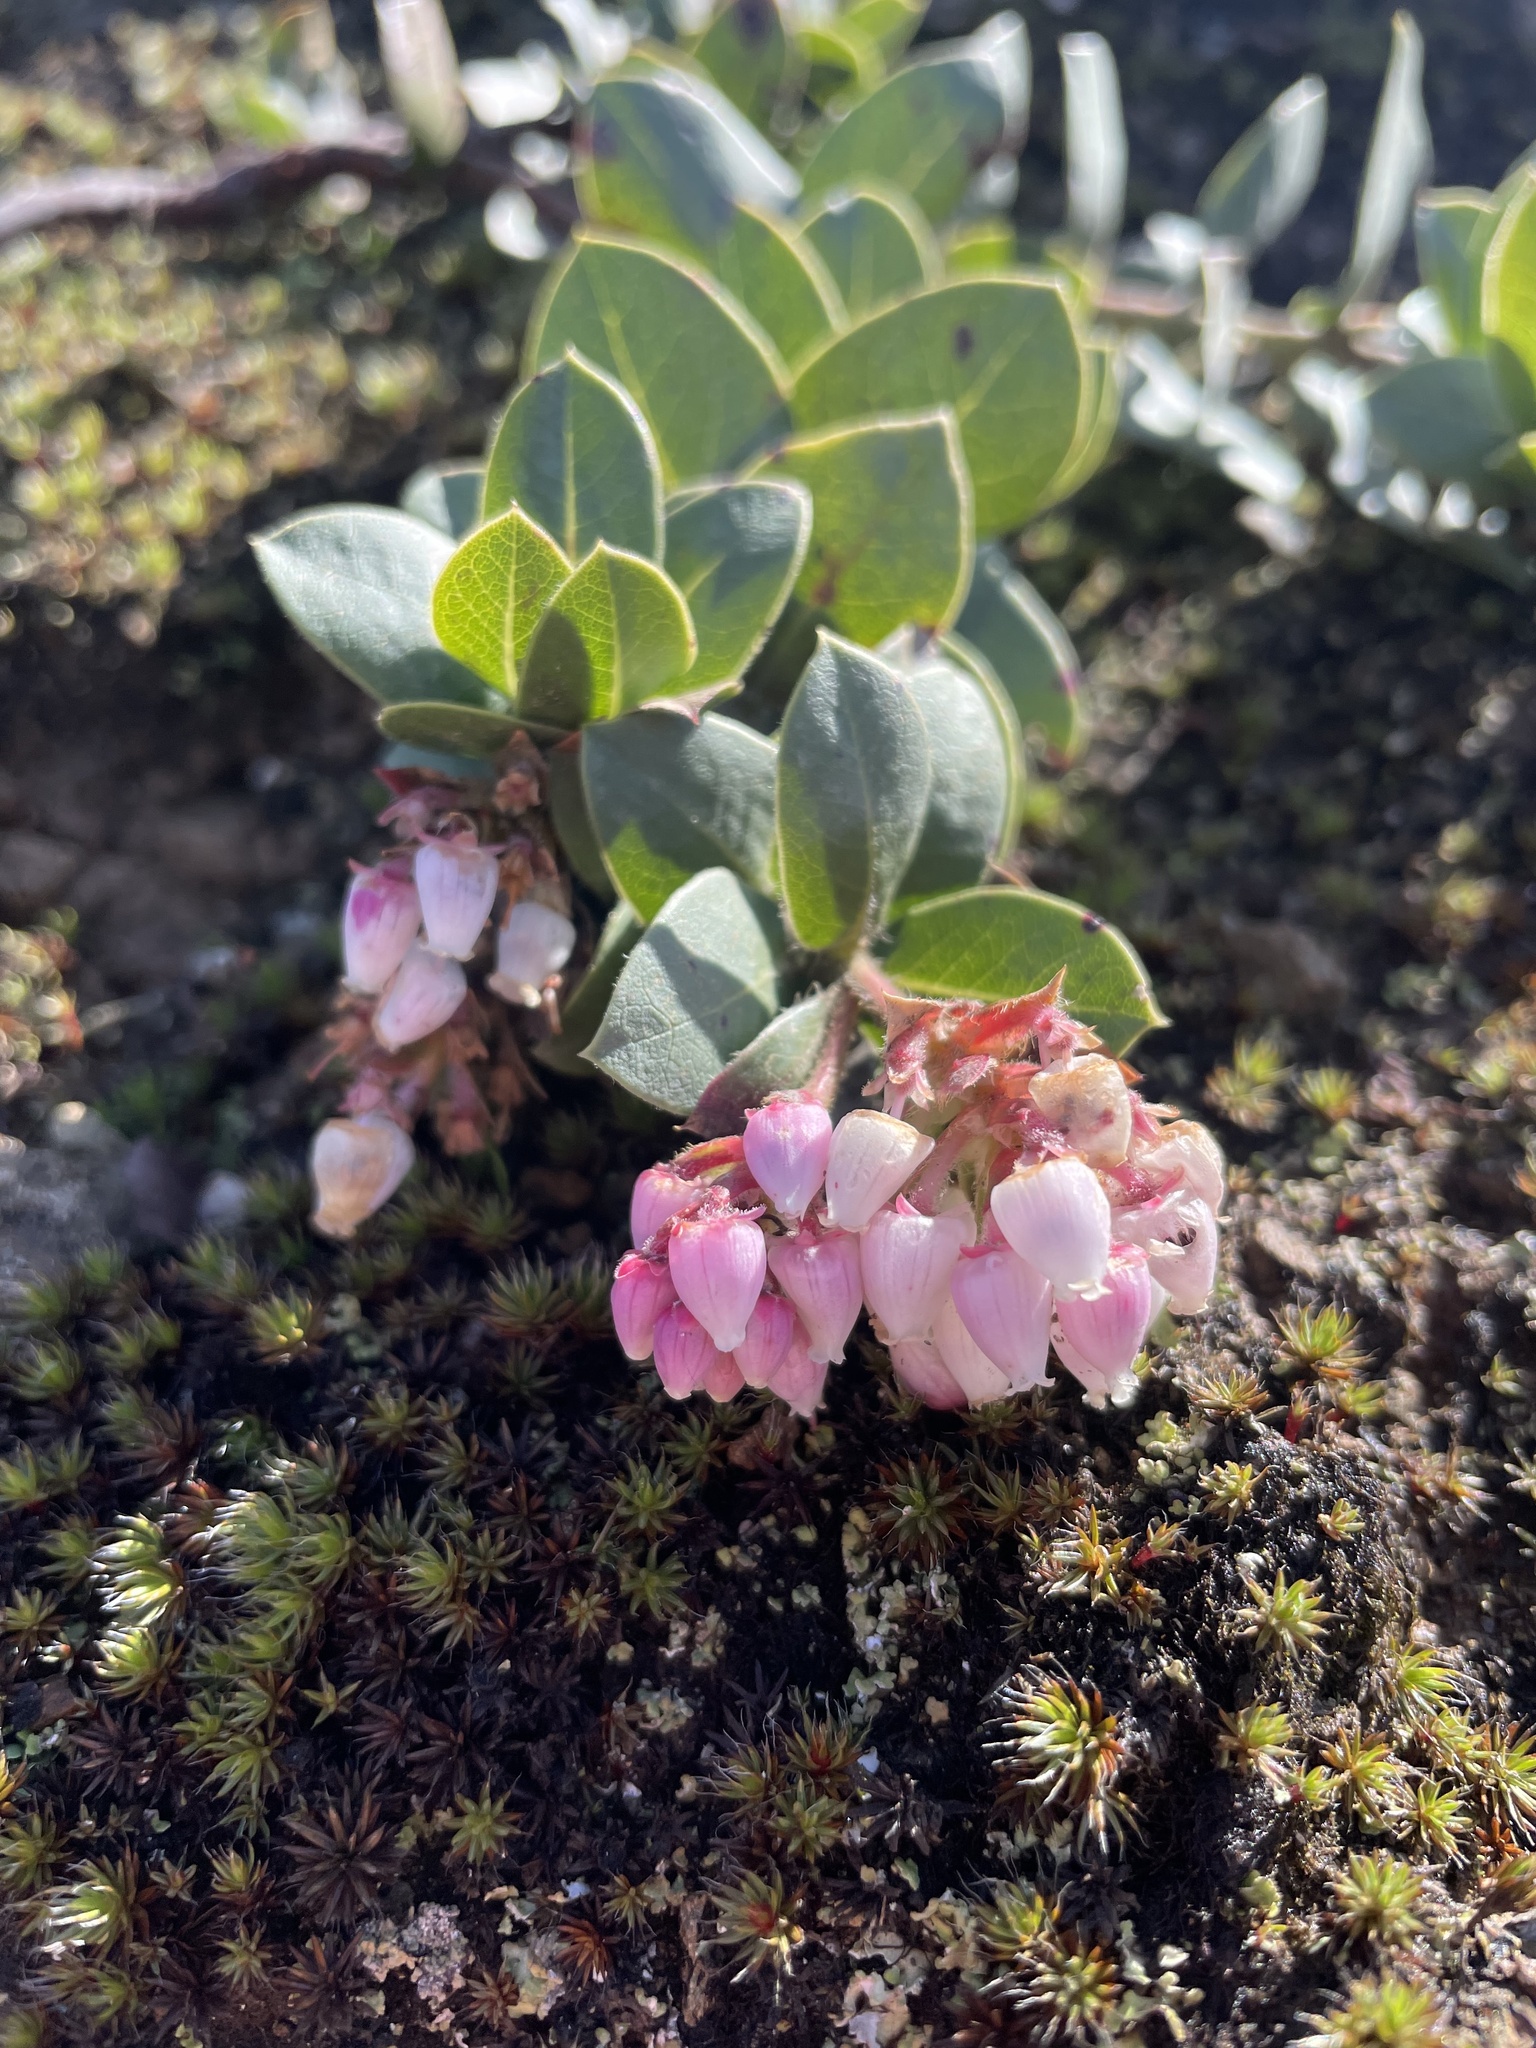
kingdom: Plantae
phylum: Tracheophyta
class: Magnoliopsida
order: Ericales
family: Ericaceae
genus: Arctostaphylos
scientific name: Arctostaphylos imbricata
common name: San bruno mountain manzanita
